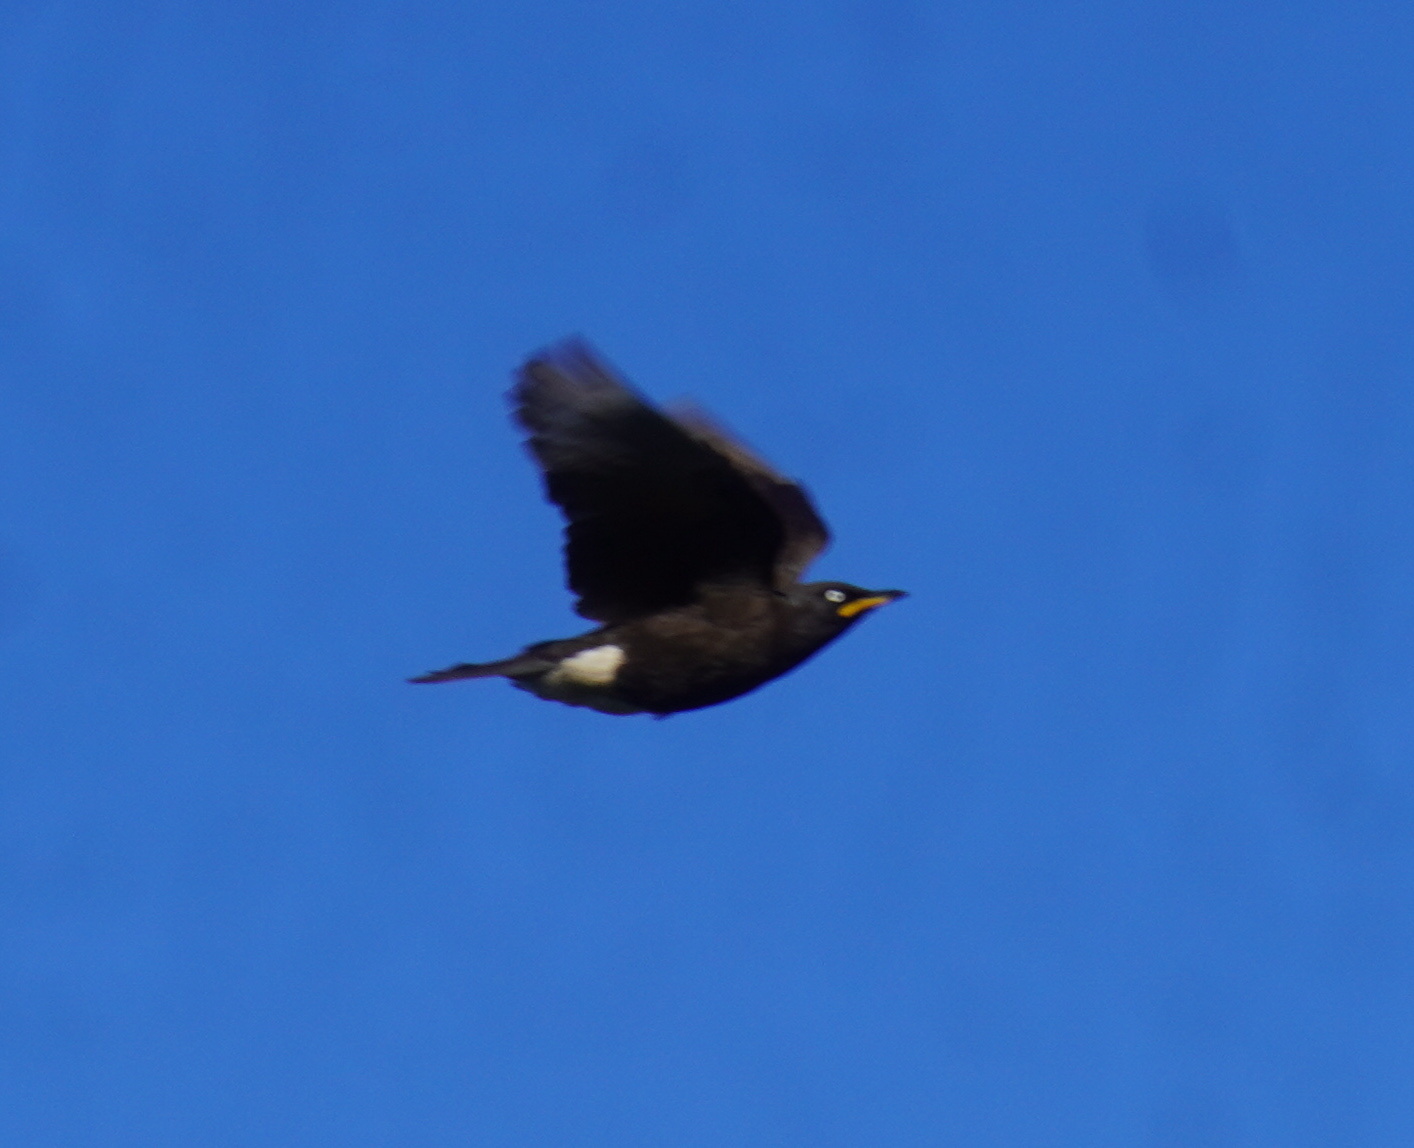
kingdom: Animalia
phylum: Chordata
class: Aves
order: Passeriformes
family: Sturnidae
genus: Lamprotornis
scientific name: Lamprotornis bicolor
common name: Pied starling
